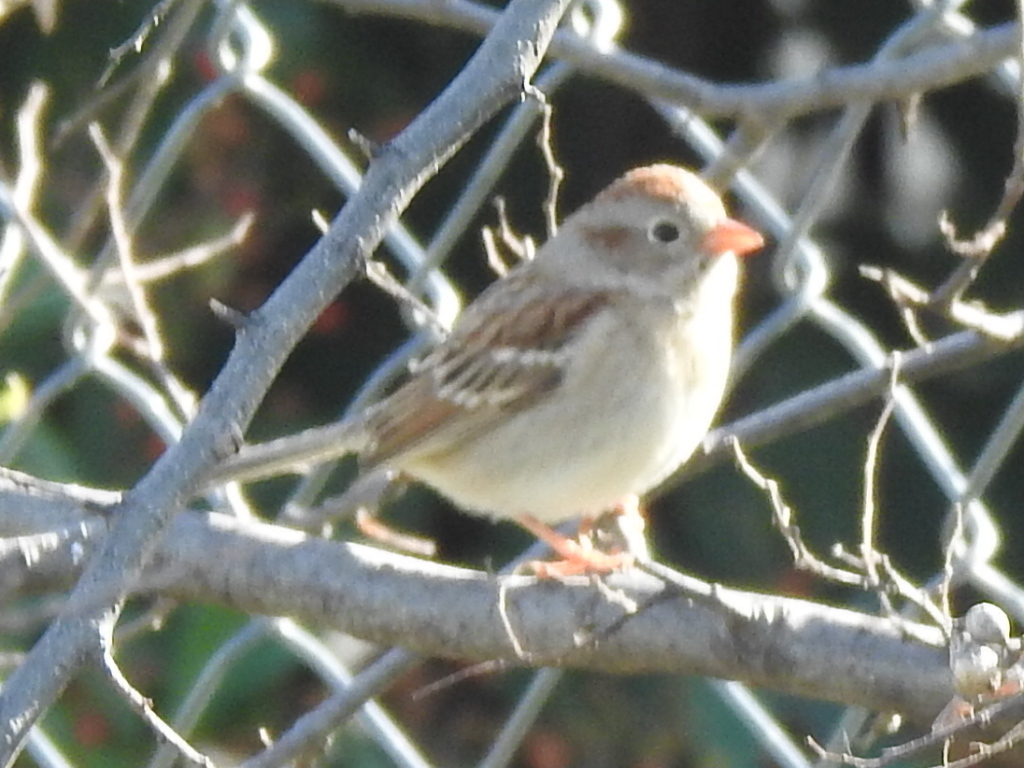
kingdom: Animalia
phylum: Chordata
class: Aves
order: Passeriformes
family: Passerellidae
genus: Spizella
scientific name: Spizella pusilla
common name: Field sparrow
